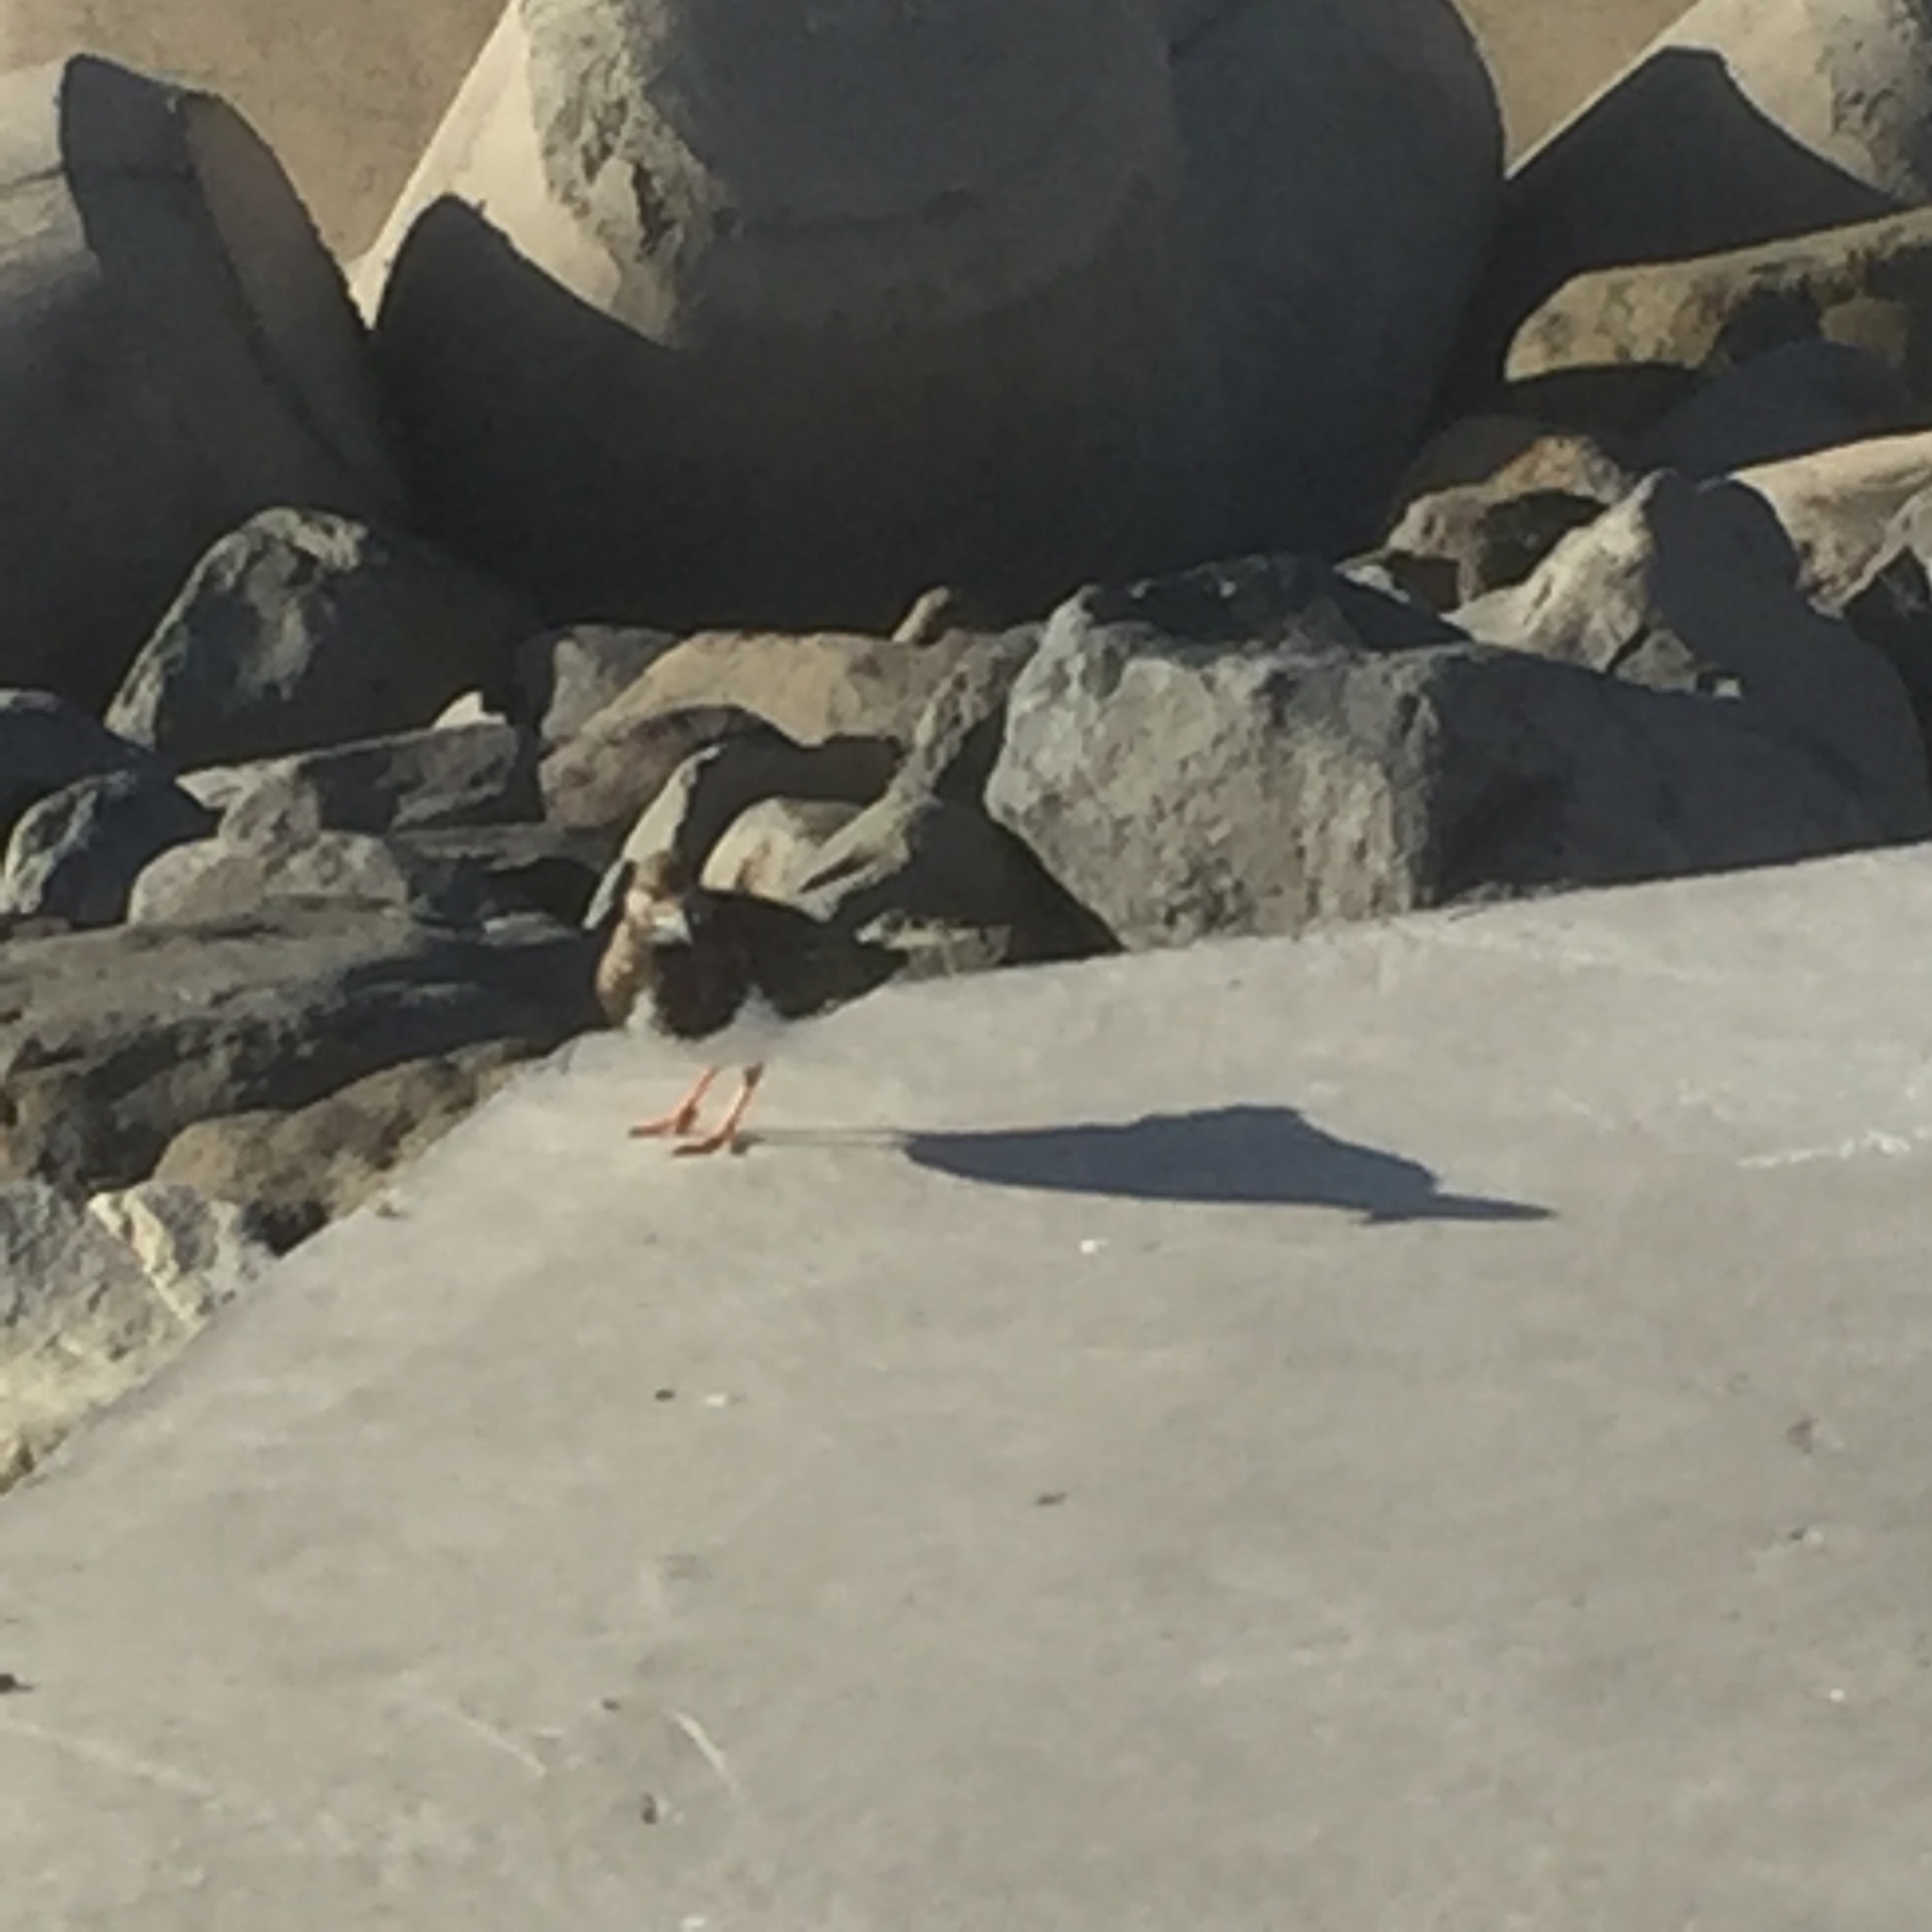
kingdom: Animalia
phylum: Chordata
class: Aves
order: Charadriiformes
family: Scolopacidae
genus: Arenaria
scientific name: Arenaria interpres
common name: Ruddy turnstone
